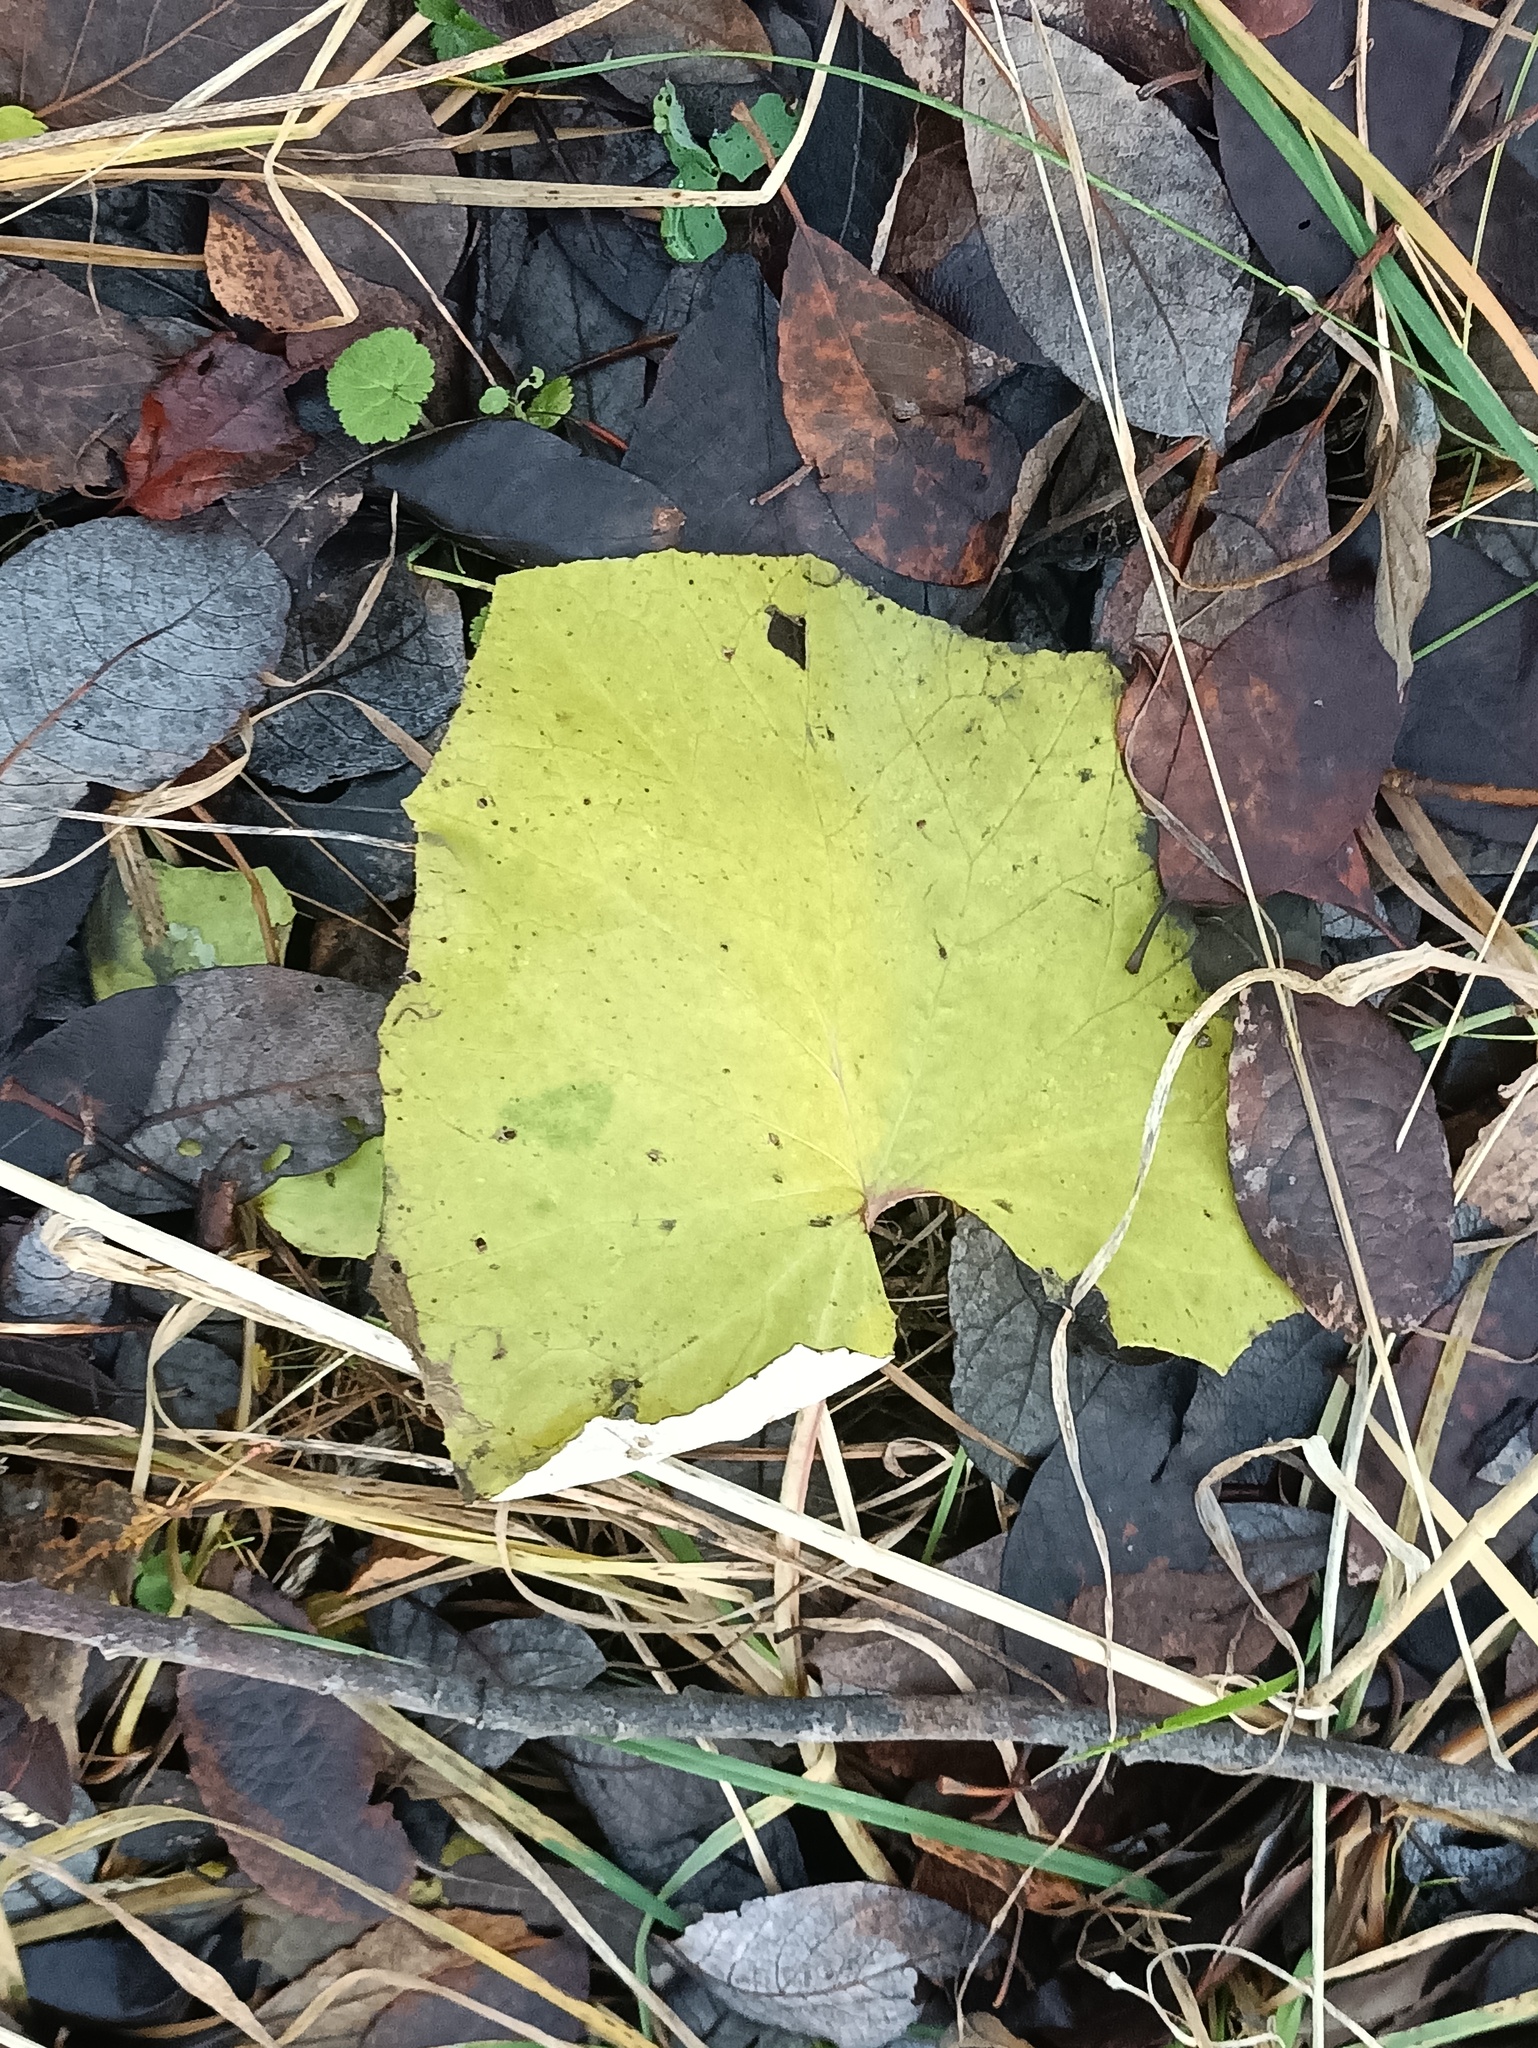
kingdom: Plantae
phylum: Tracheophyta
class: Magnoliopsida
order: Asterales
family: Asteraceae
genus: Tussilago
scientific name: Tussilago farfara
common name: Coltsfoot
